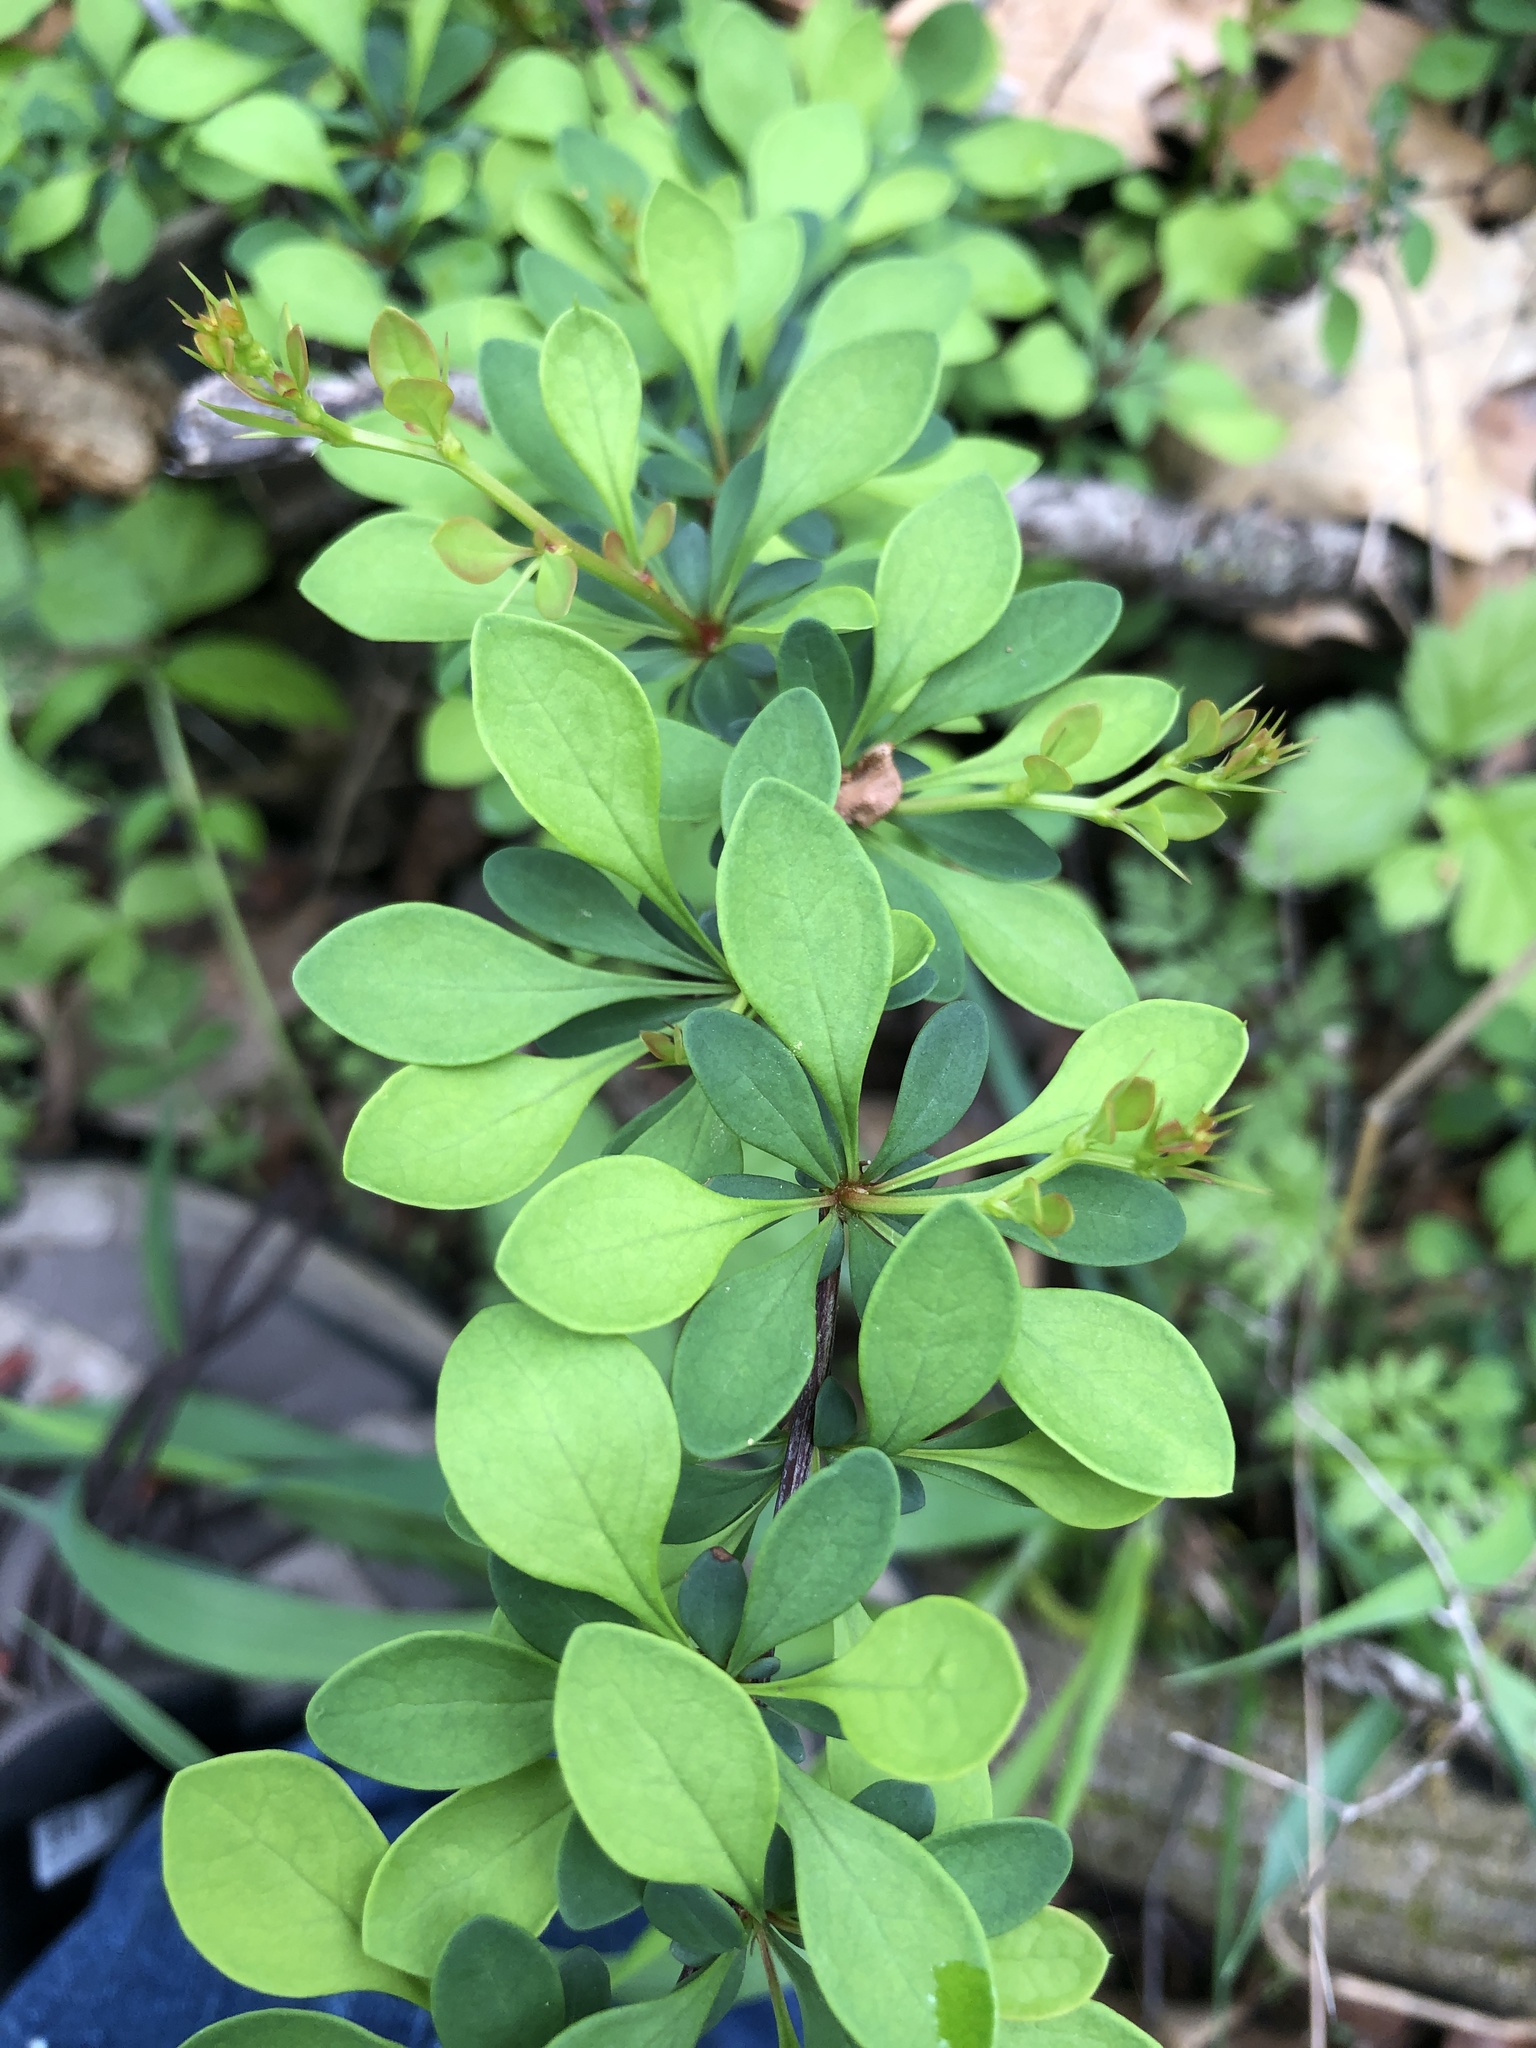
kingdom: Plantae
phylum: Tracheophyta
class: Magnoliopsida
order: Ranunculales
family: Berberidaceae
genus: Berberis
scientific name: Berberis thunbergii
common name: Japanese barberry
